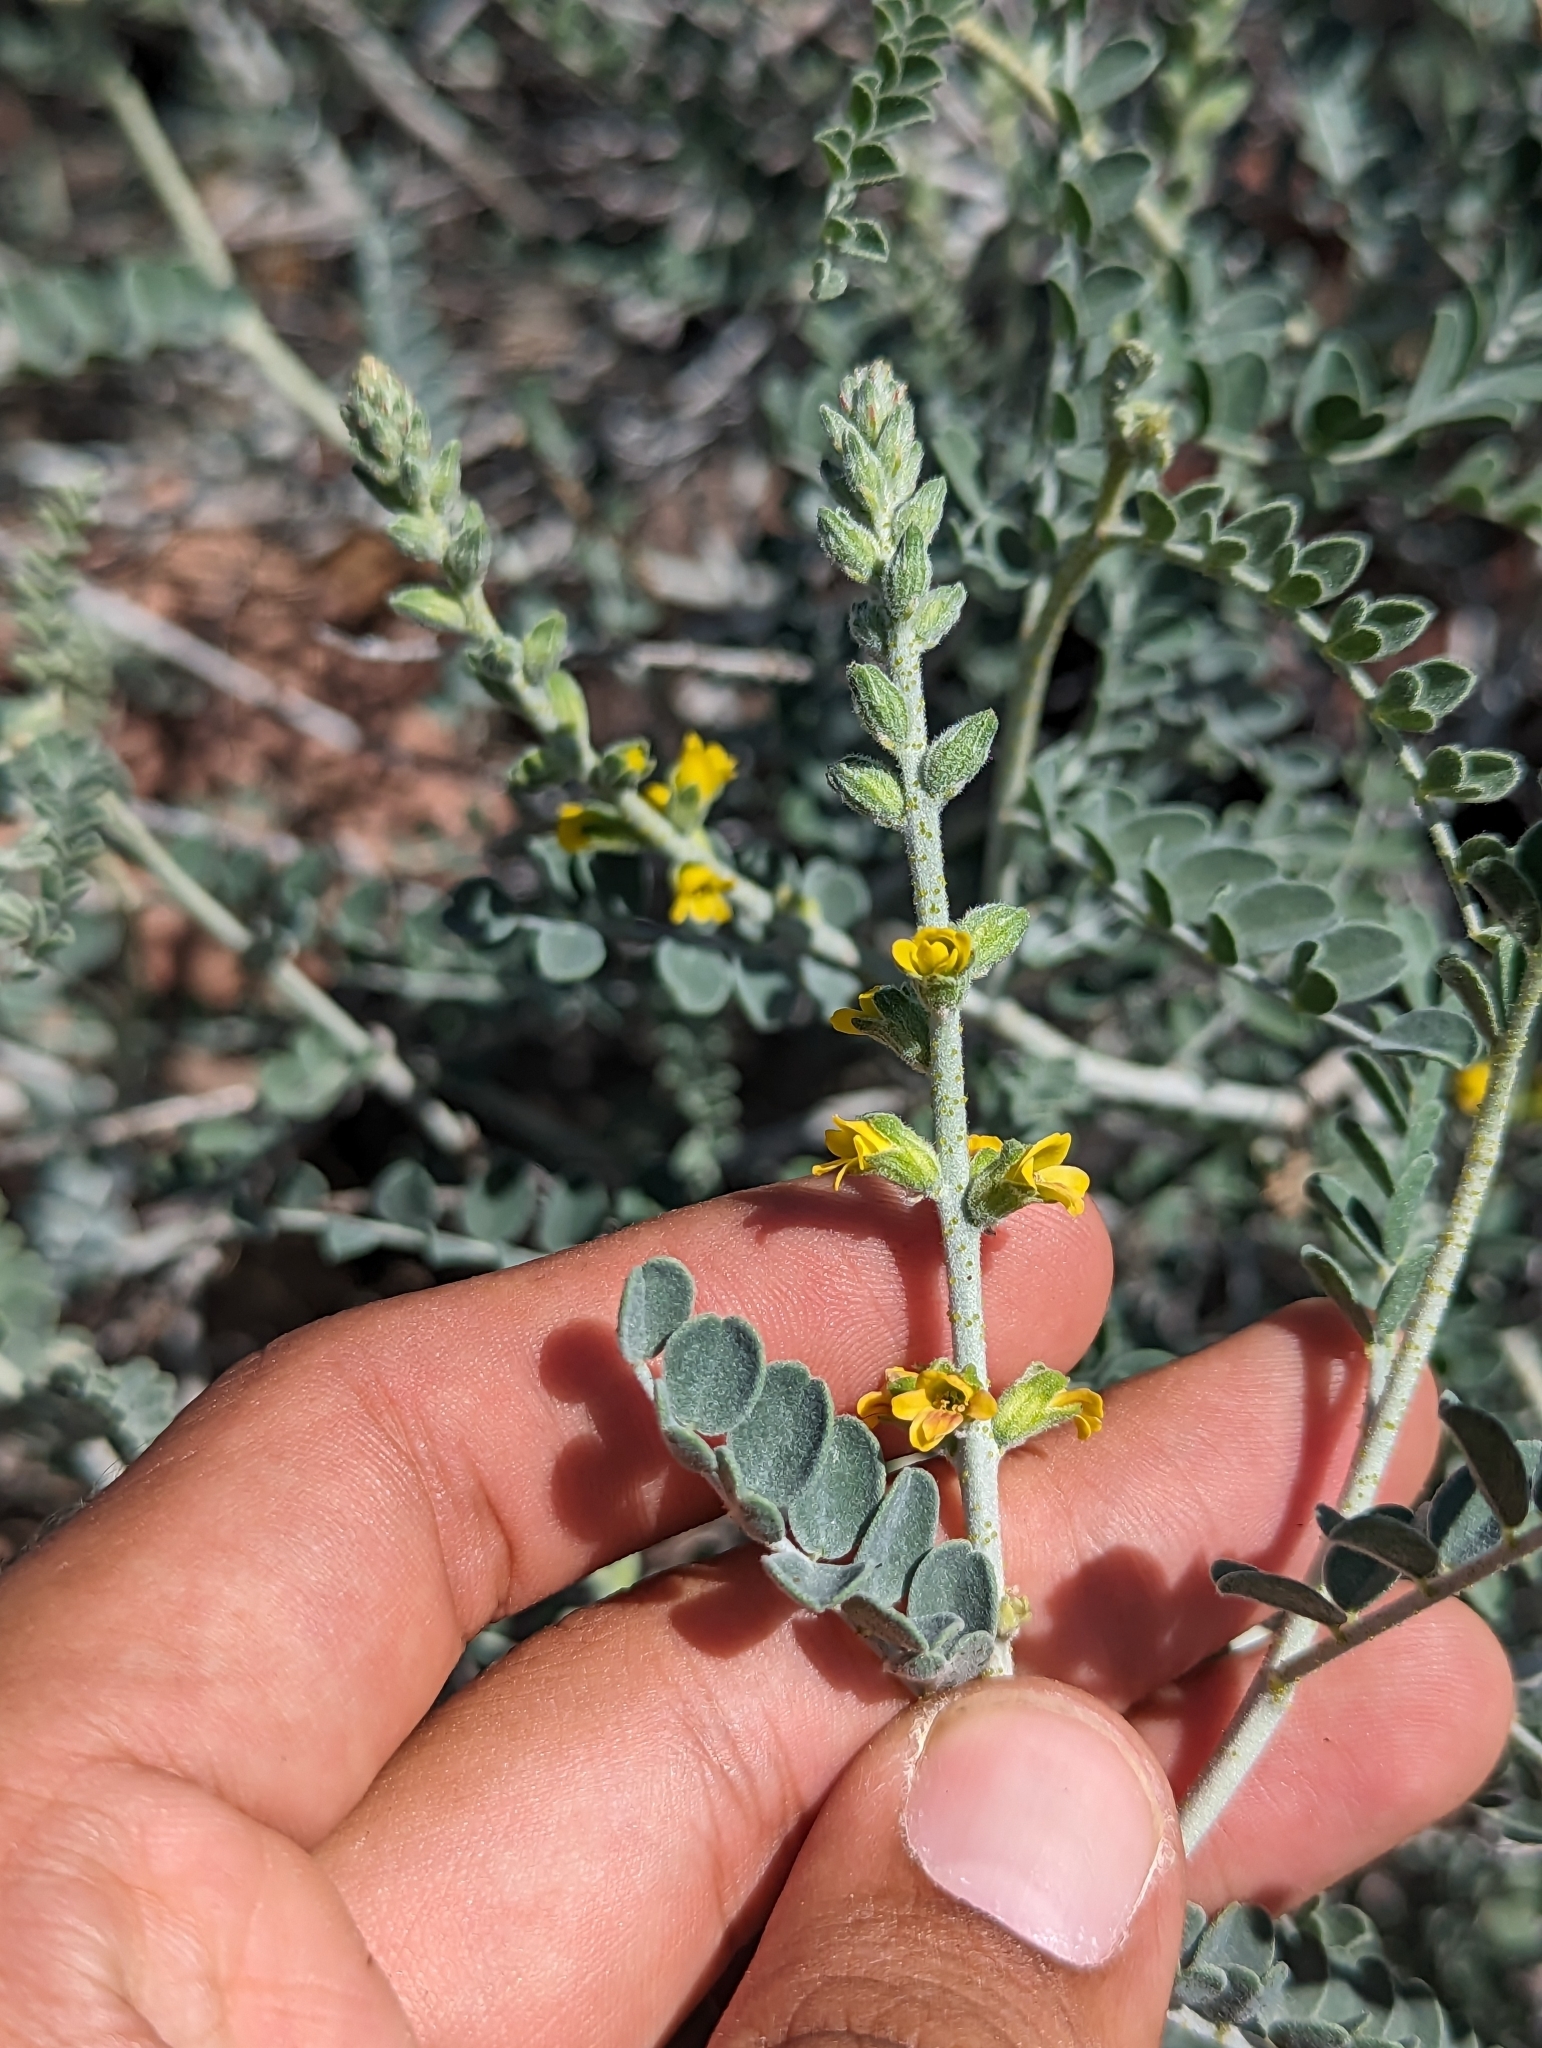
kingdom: Plantae
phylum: Tracheophyta
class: Magnoliopsida
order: Fabales
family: Fabaceae
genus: Errazurizia
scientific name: Errazurizia megacarpa
